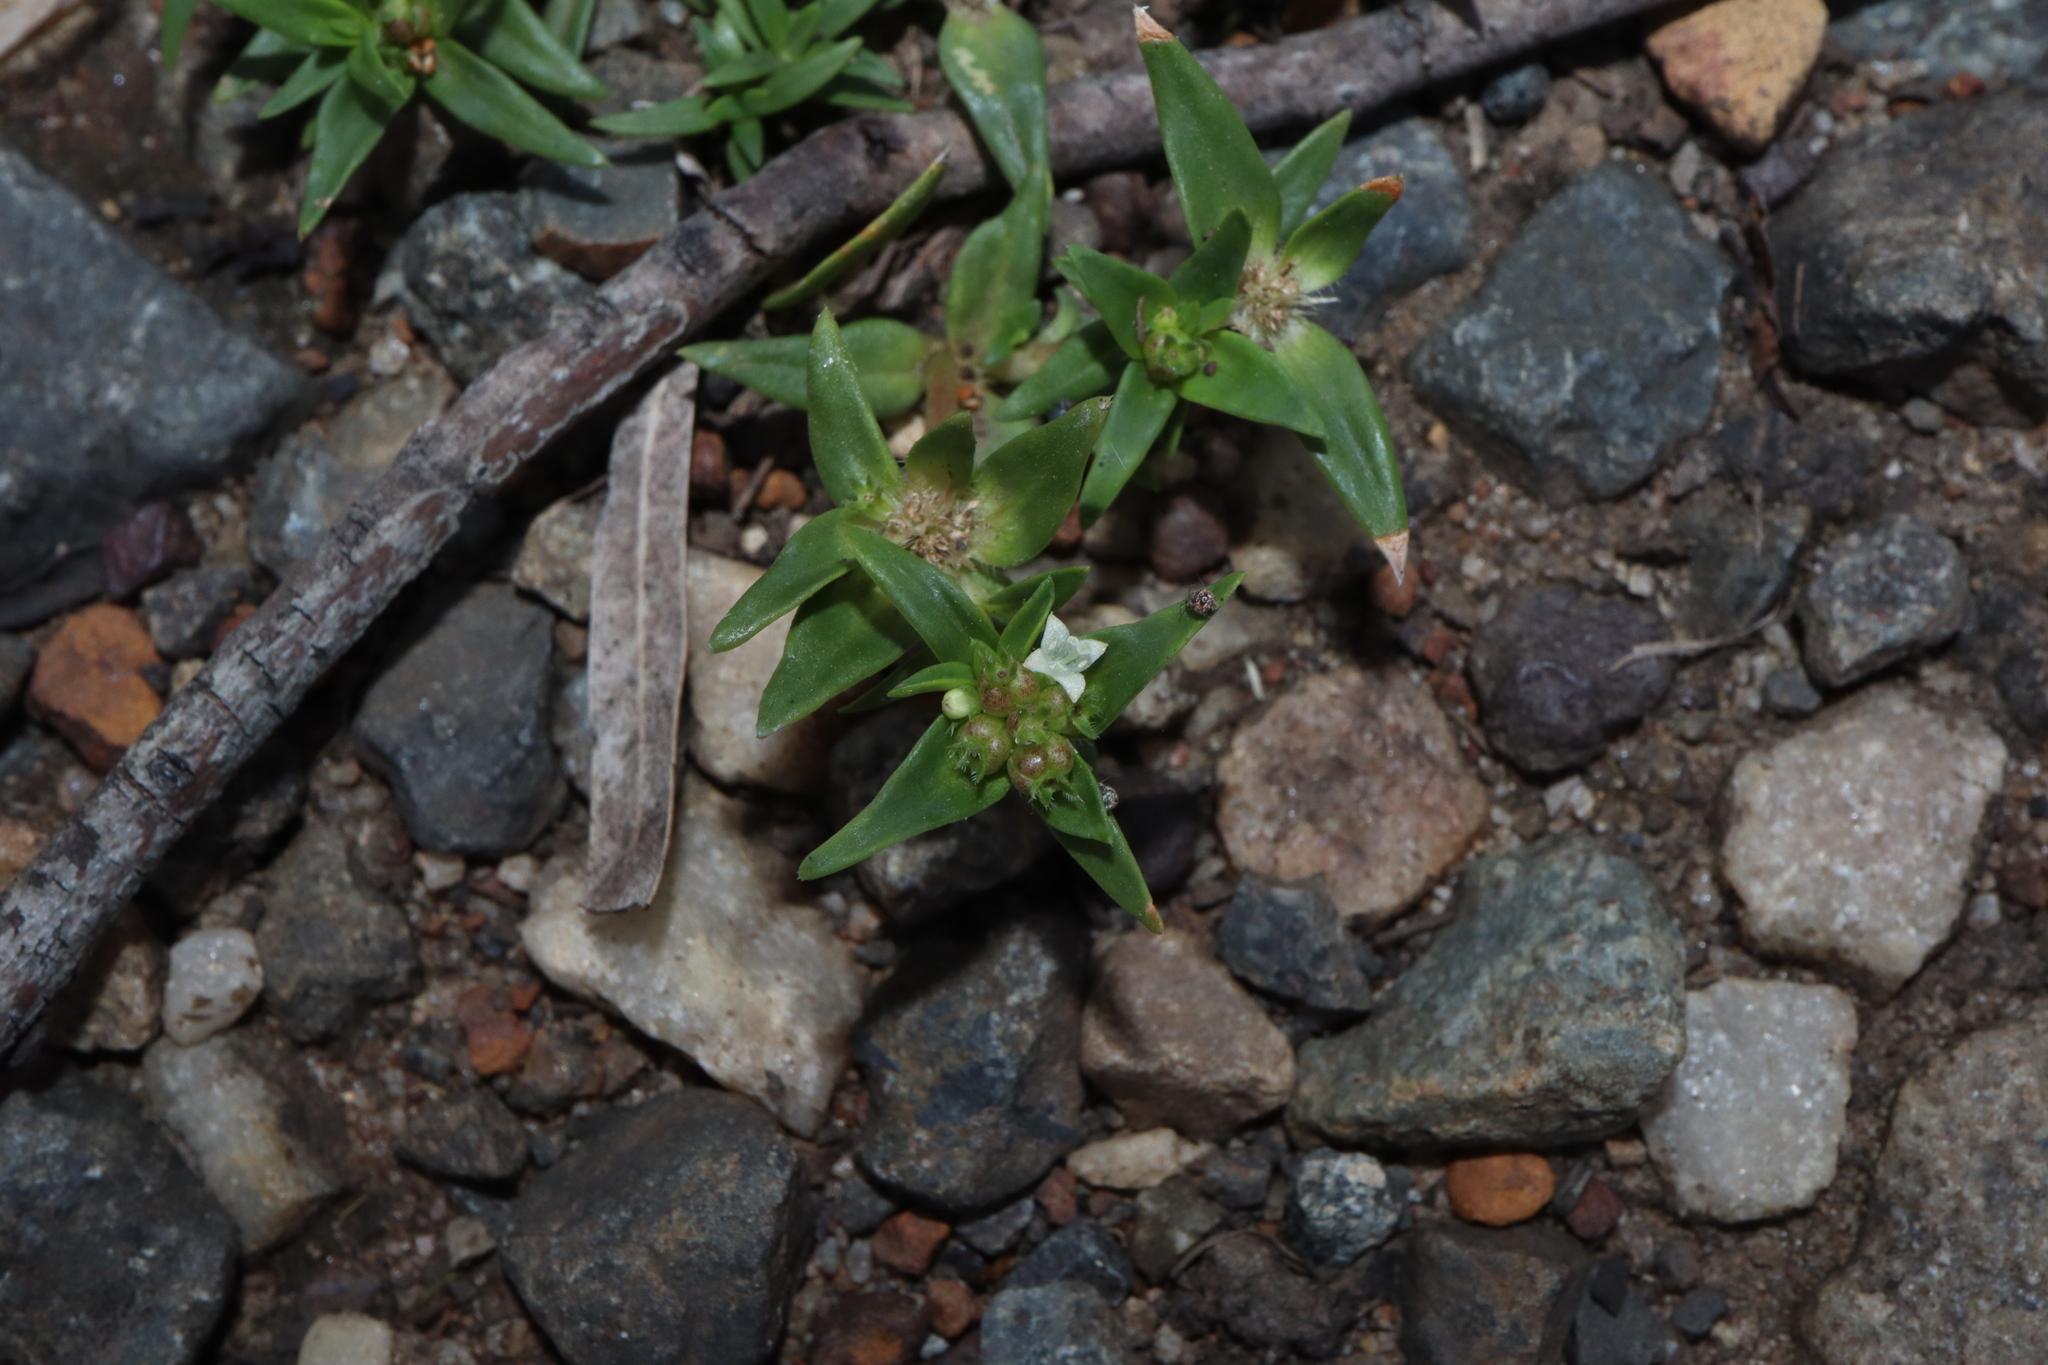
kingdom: Plantae
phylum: Tracheophyta
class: Magnoliopsida
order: Gentianales
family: Rubiaceae
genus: Richardia
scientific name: Richardia stellaris
